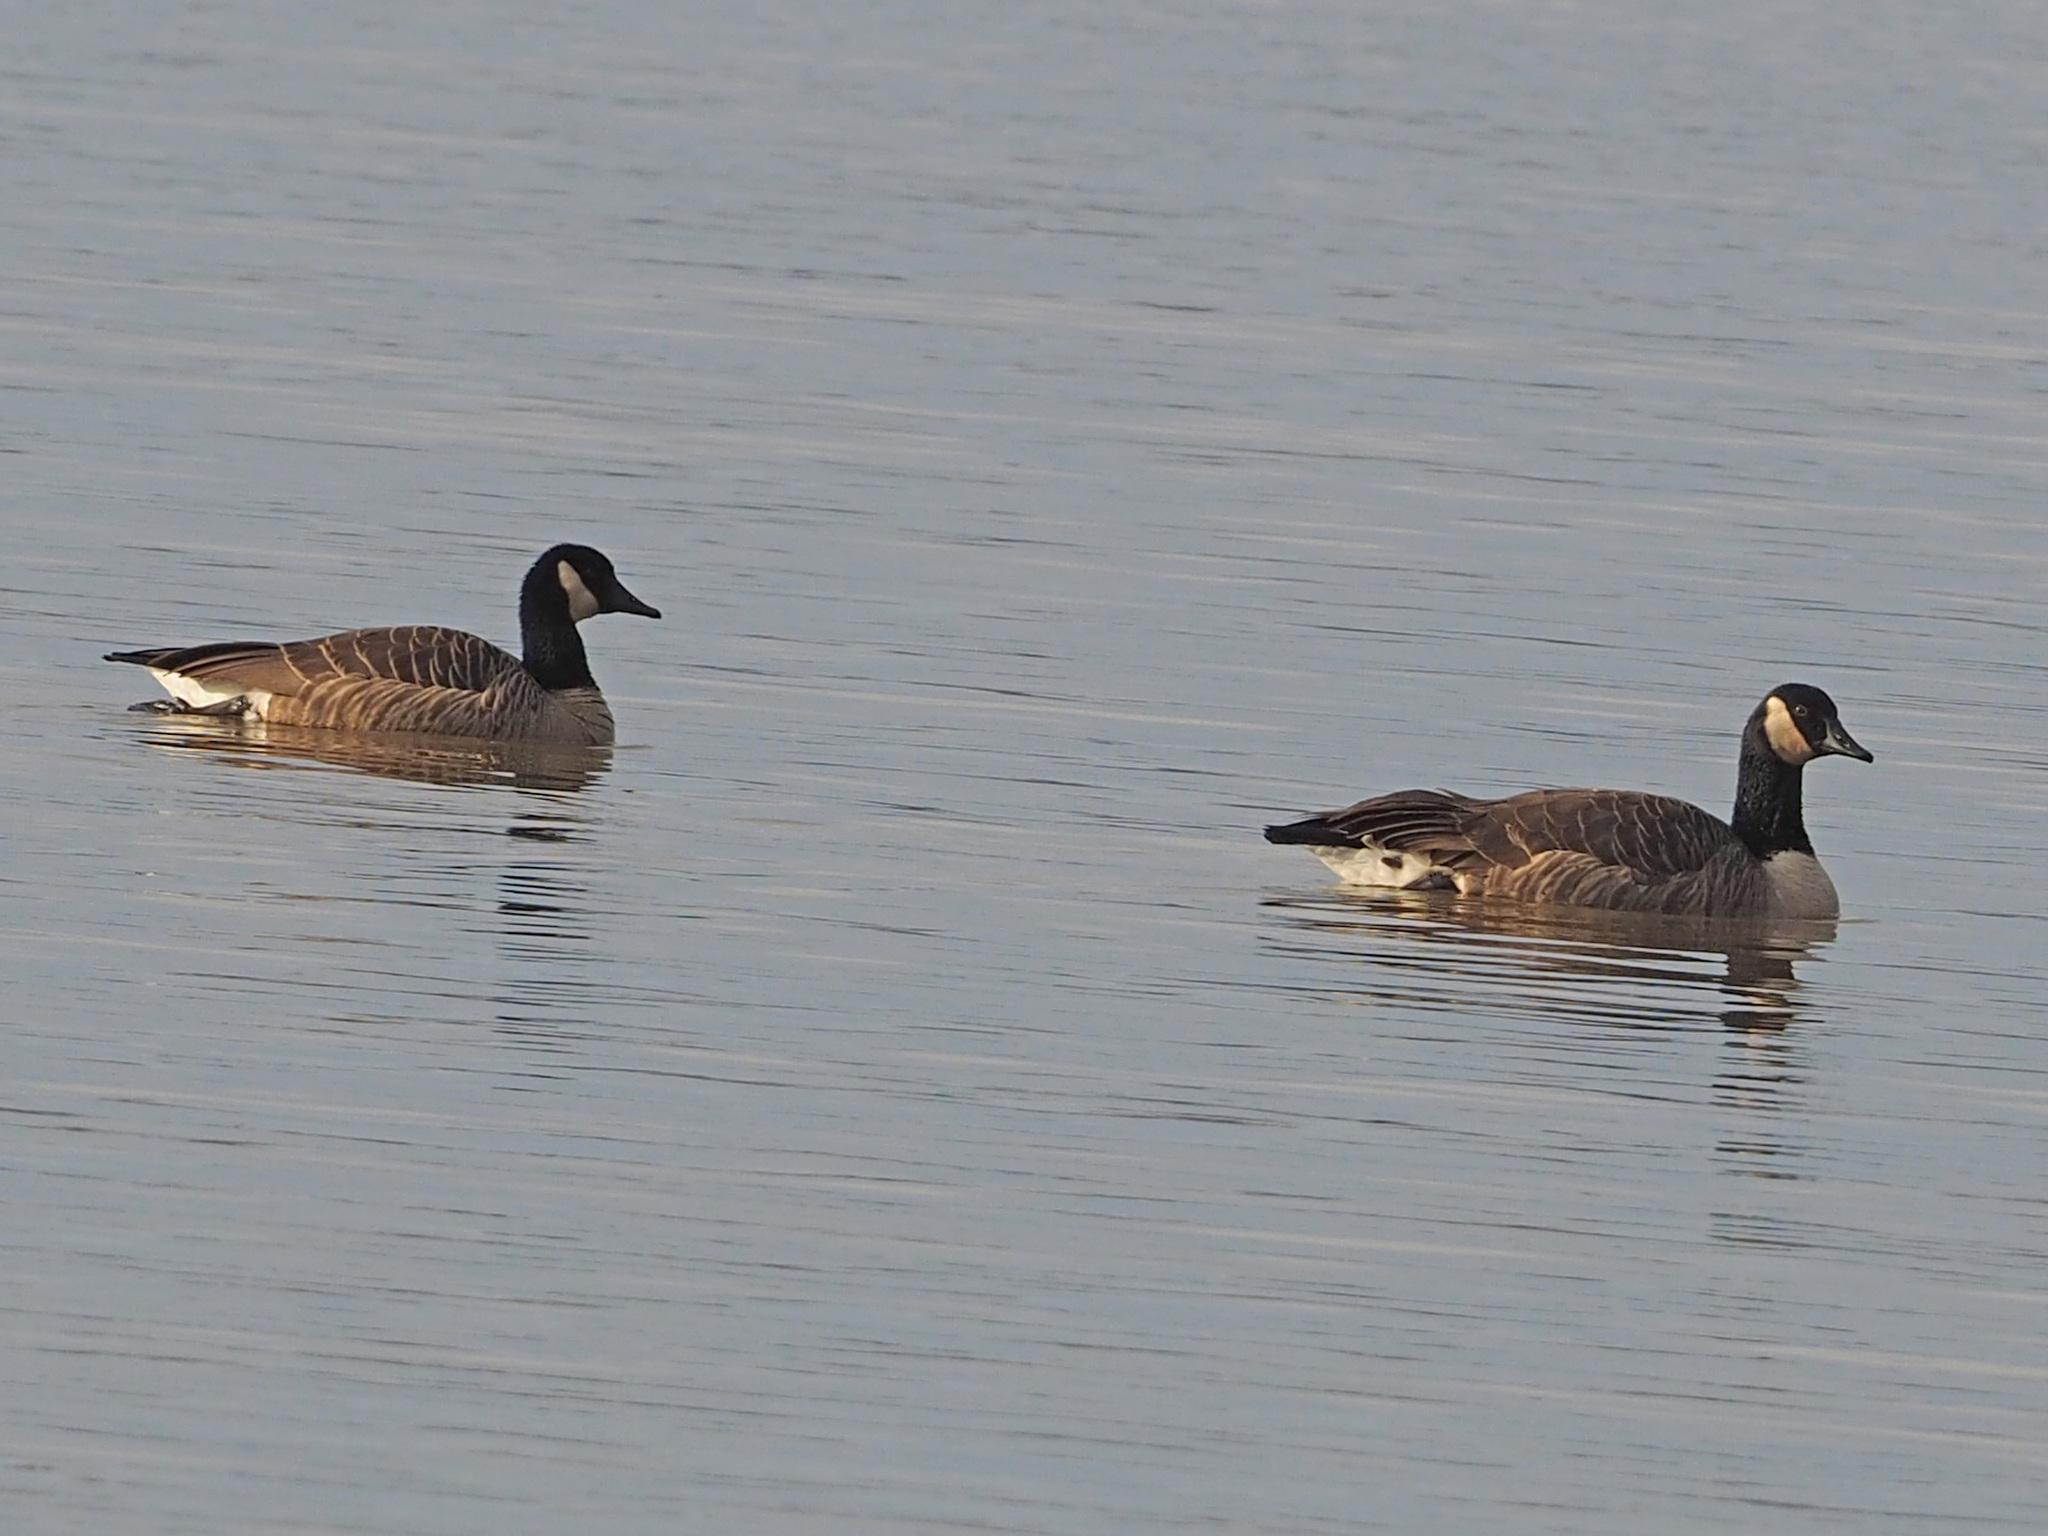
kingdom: Animalia
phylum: Chordata
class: Aves
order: Anseriformes
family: Anatidae
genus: Branta
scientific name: Branta canadensis
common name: Canada goose
